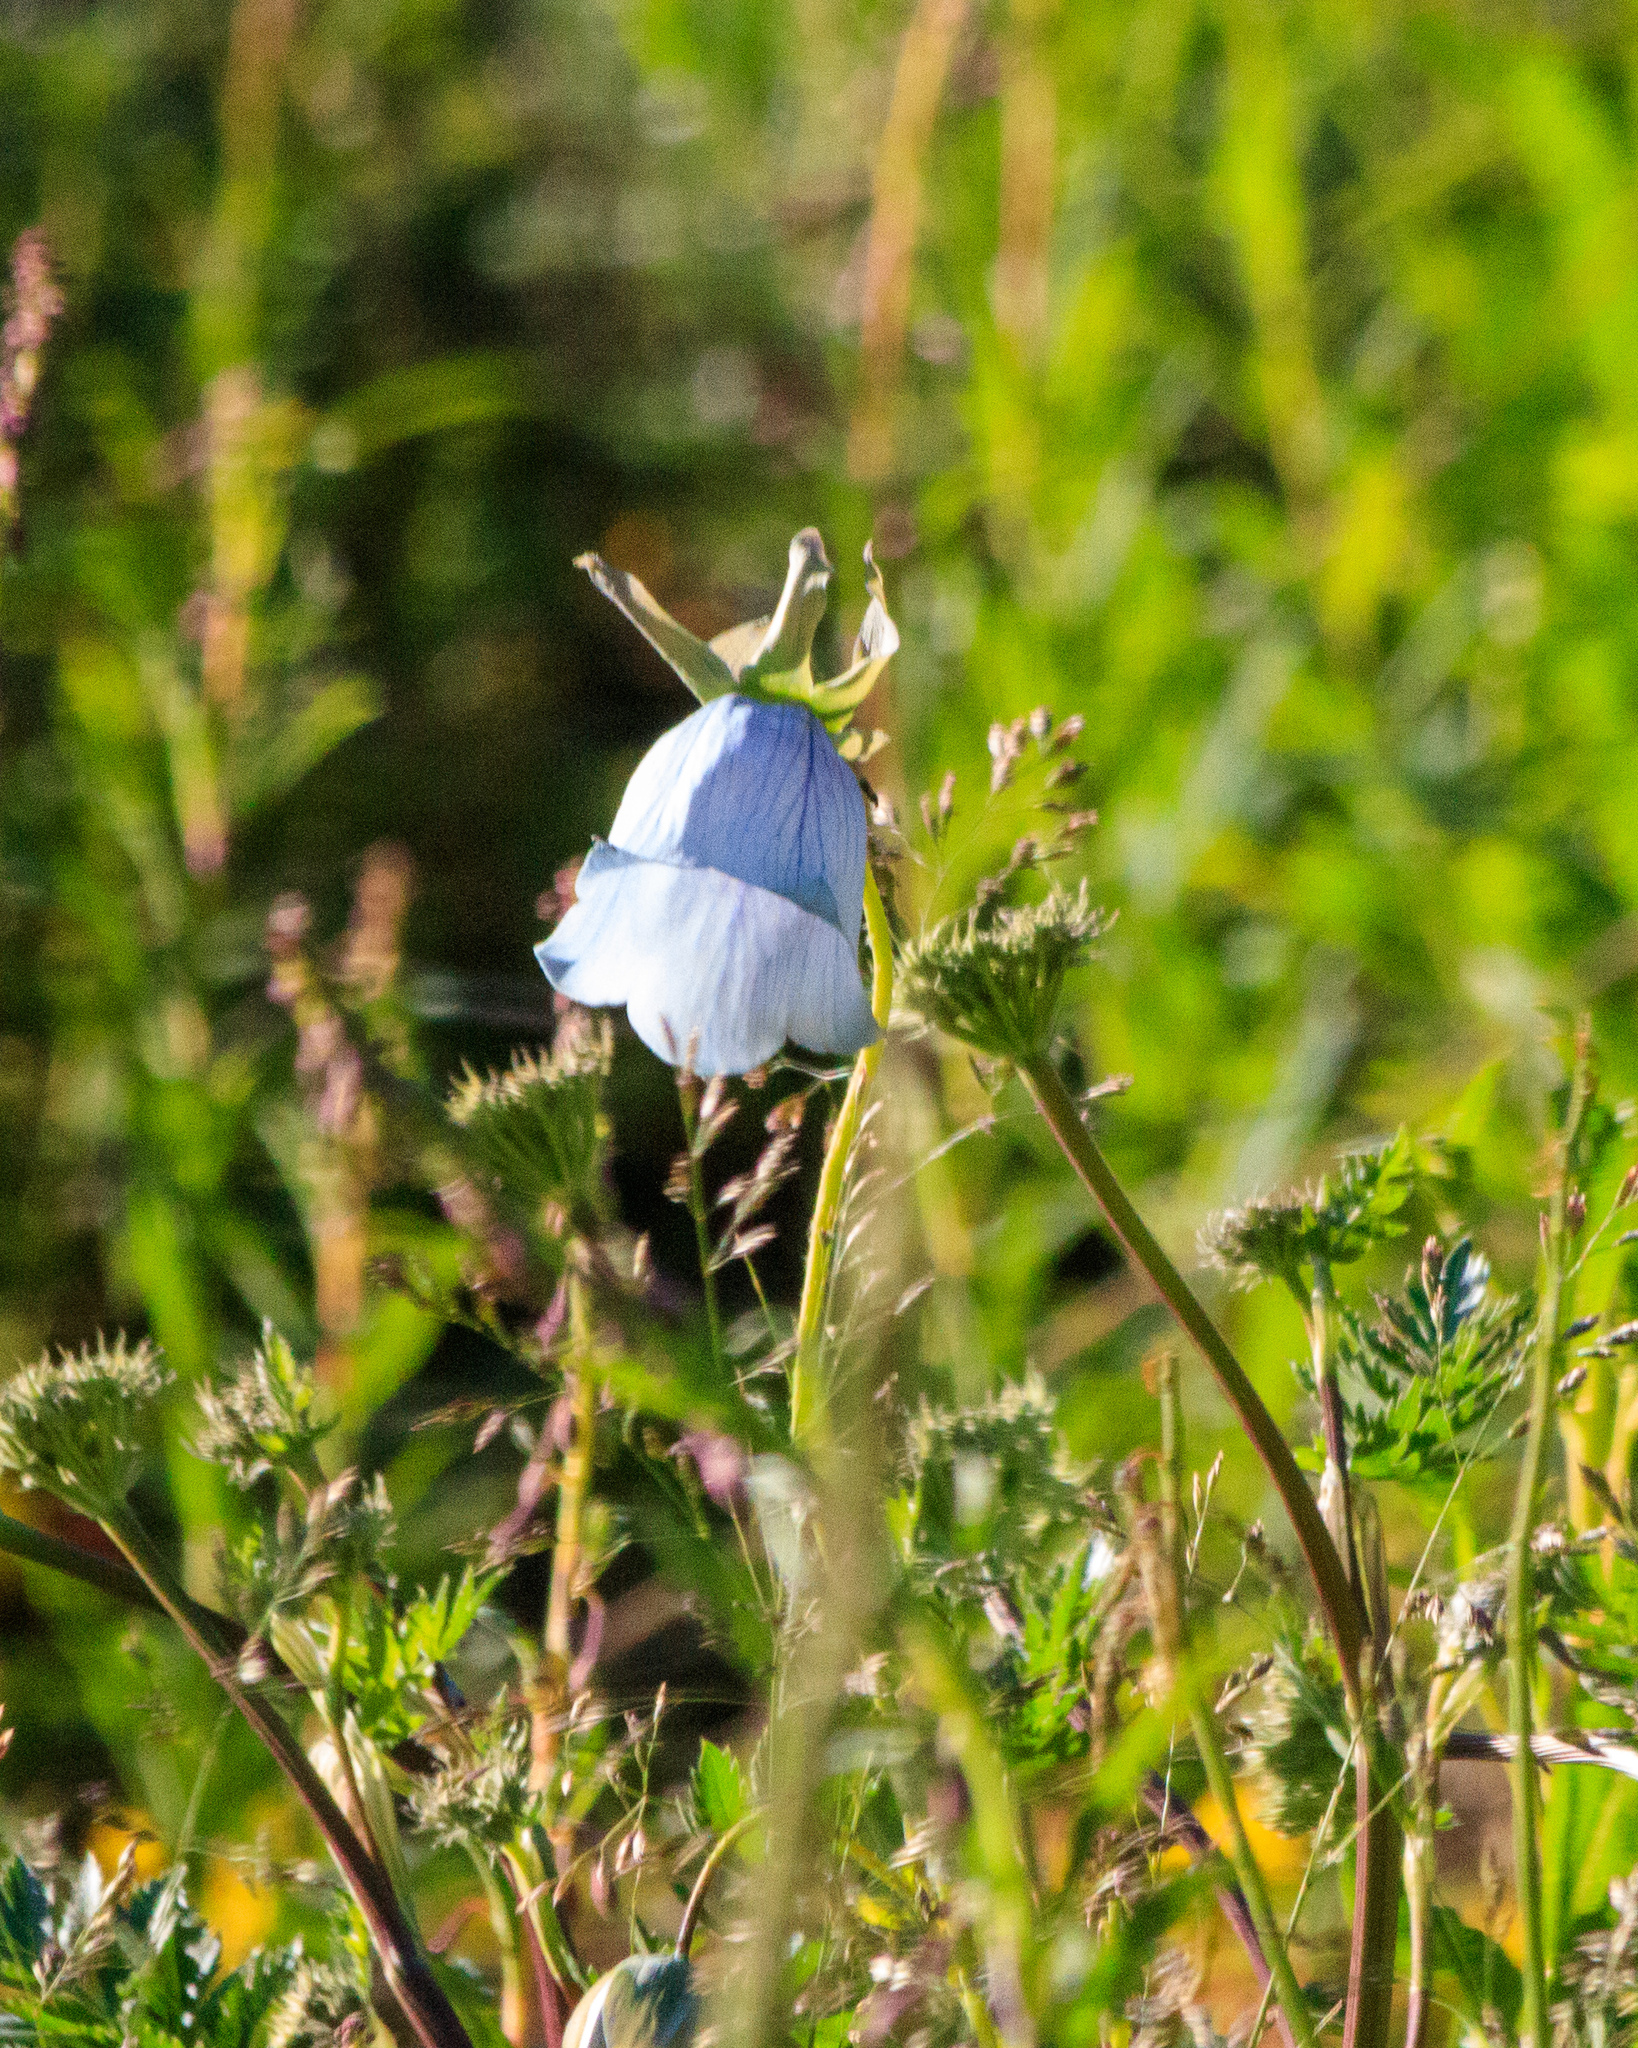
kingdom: Plantae
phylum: Tracheophyta
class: Magnoliopsida
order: Asterales
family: Campanulaceae
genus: Codonopsis
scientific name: Codonopsis clematidea
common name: Bonnet-bellflower
